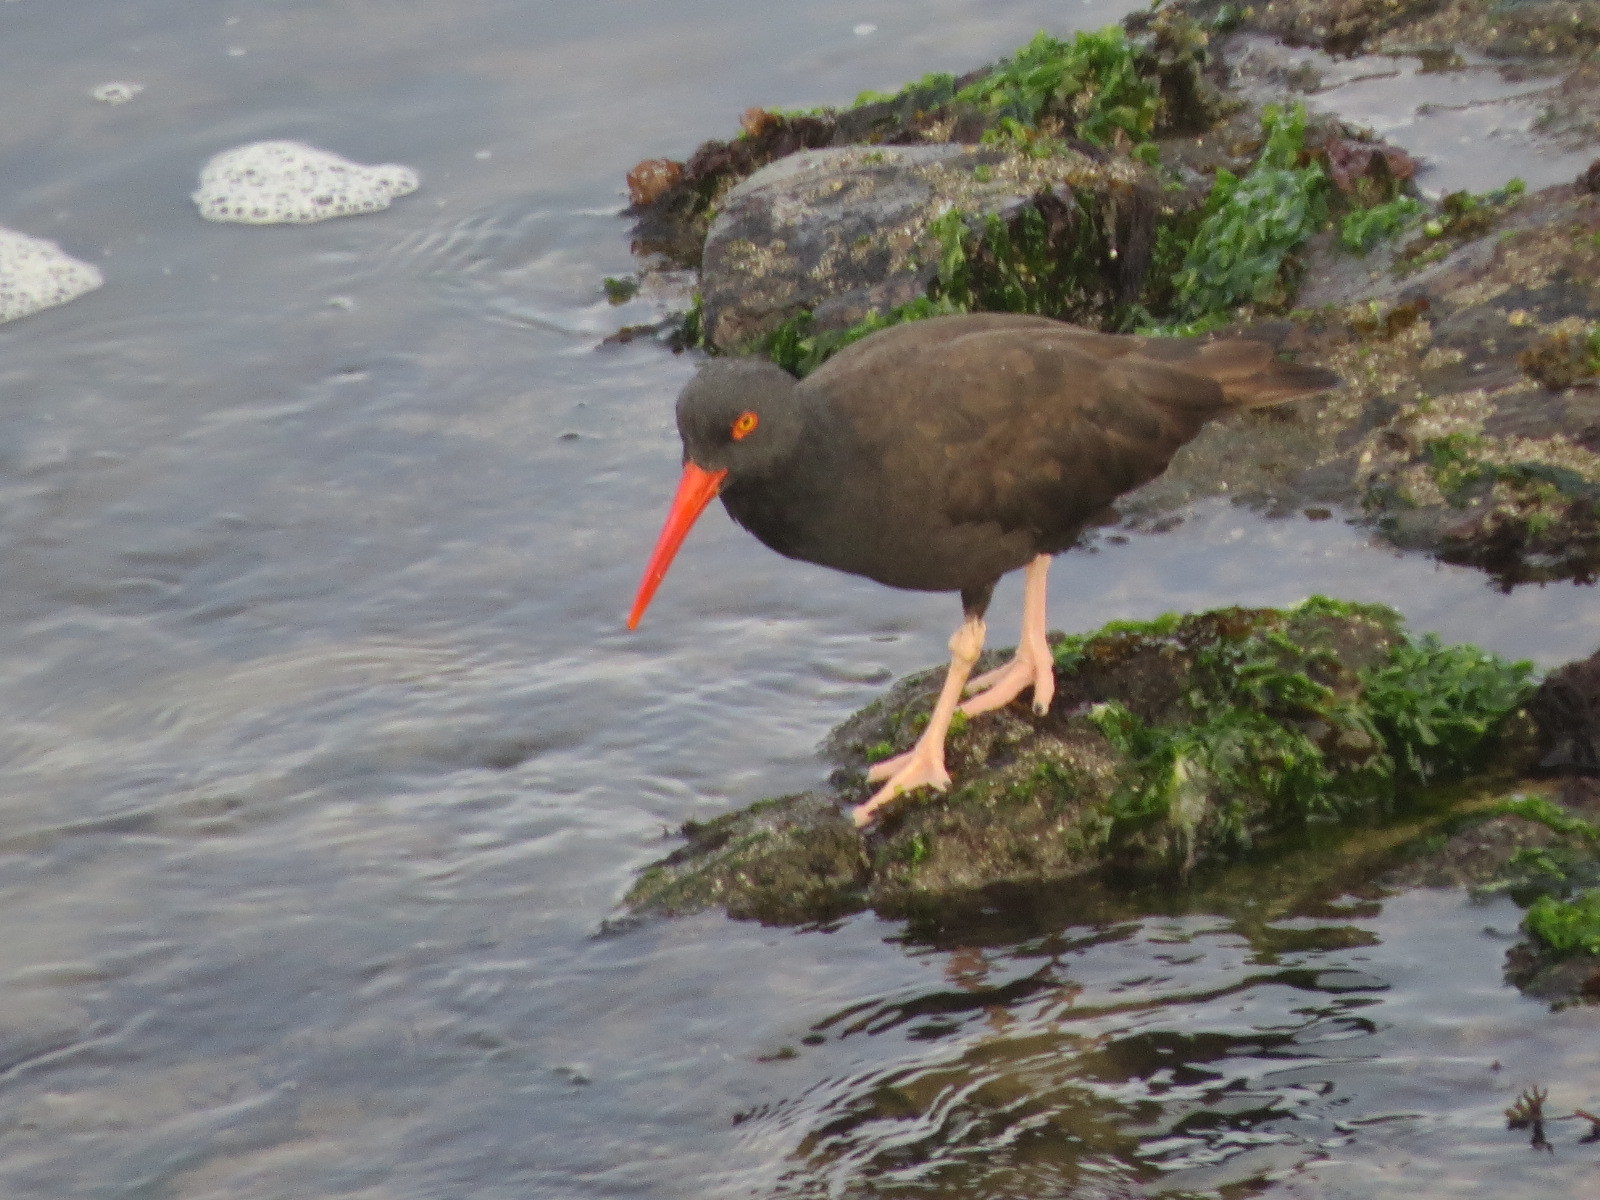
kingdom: Animalia
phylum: Chordata
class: Aves
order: Charadriiformes
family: Haematopodidae
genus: Haematopus
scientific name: Haematopus bachmani
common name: Black oystercatcher
